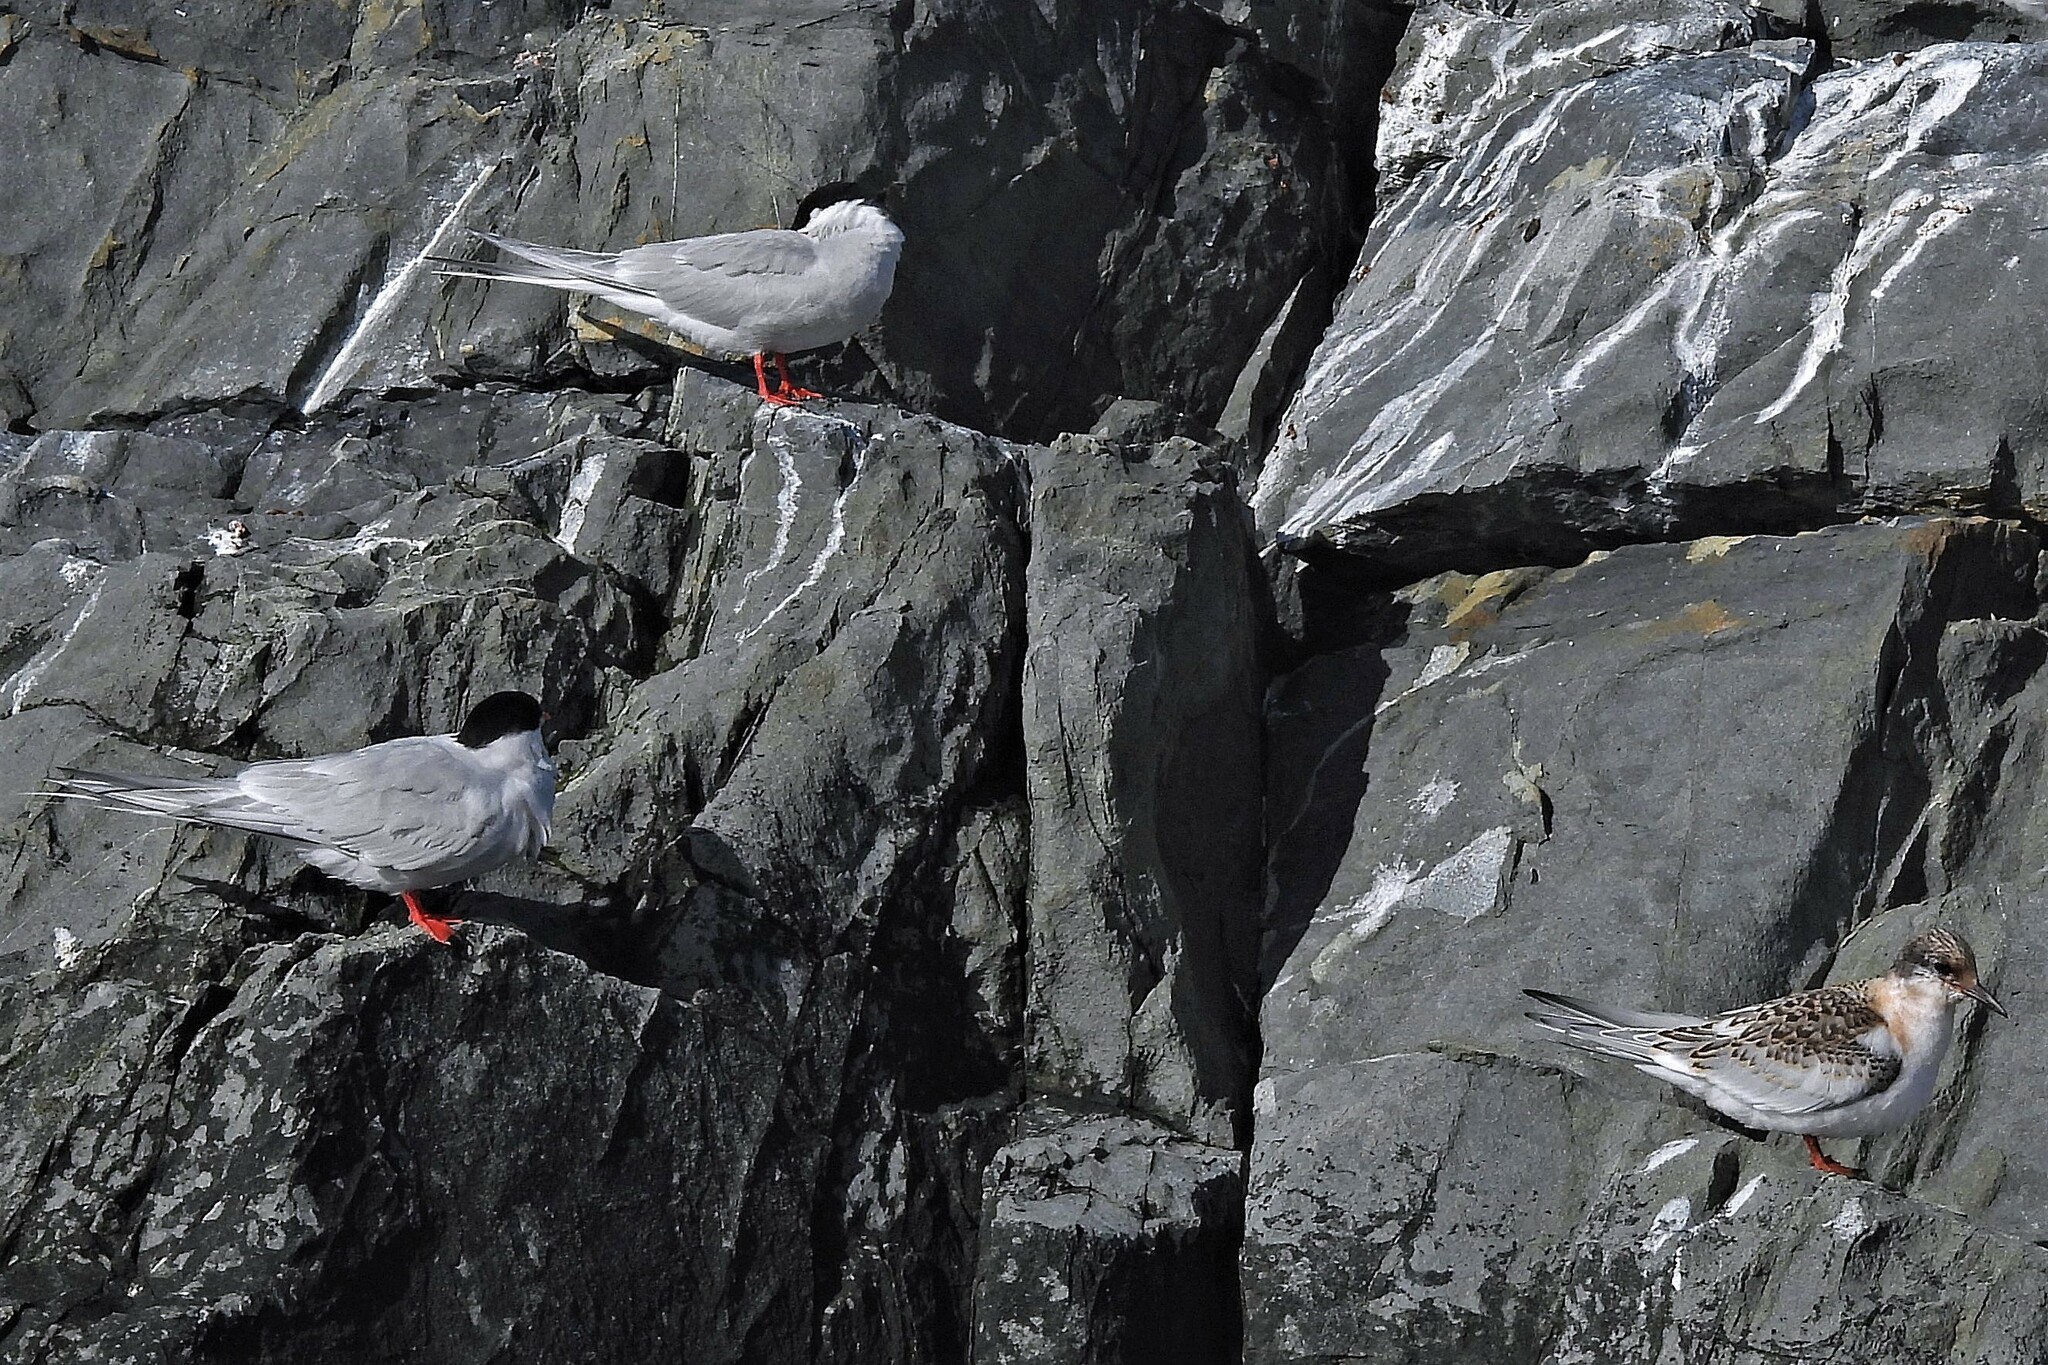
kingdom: Animalia
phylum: Chordata
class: Aves
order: Charadriiformes
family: Laridae
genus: Sterna
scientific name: Sterna hirundinacea
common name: South american tern
